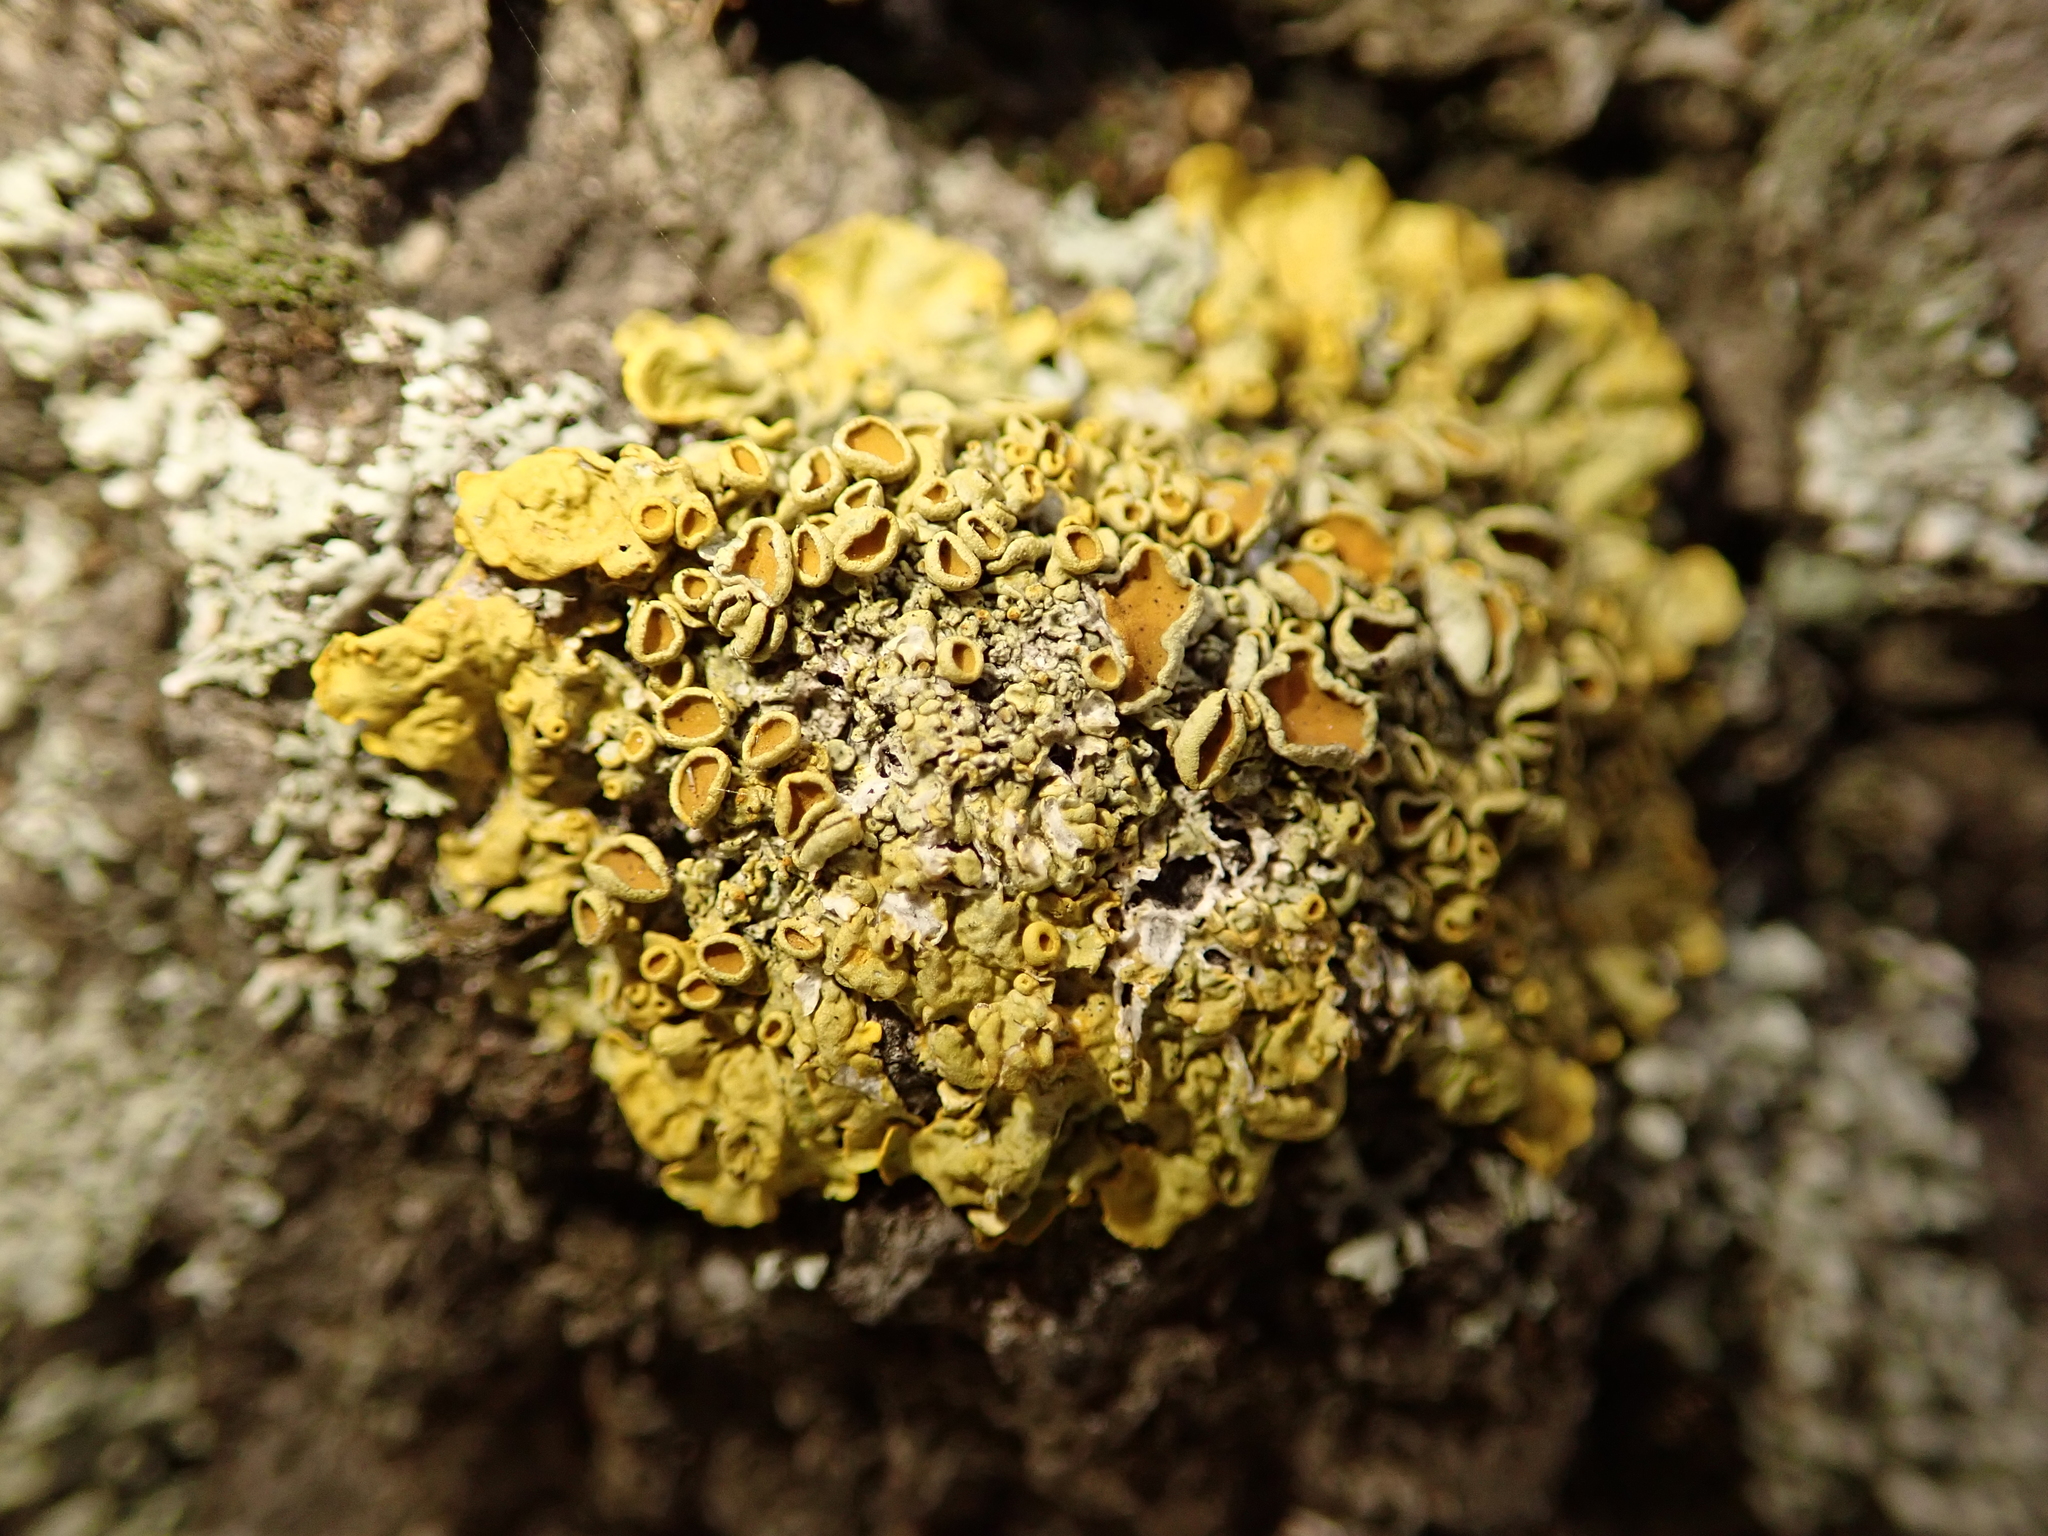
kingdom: Fungi
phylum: Ascomycota
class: Lecanoromycetes
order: Teloschistales
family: Teloschistaceae
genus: Xanthoria
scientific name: Xanthoria parietina
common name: Common orange lichen
